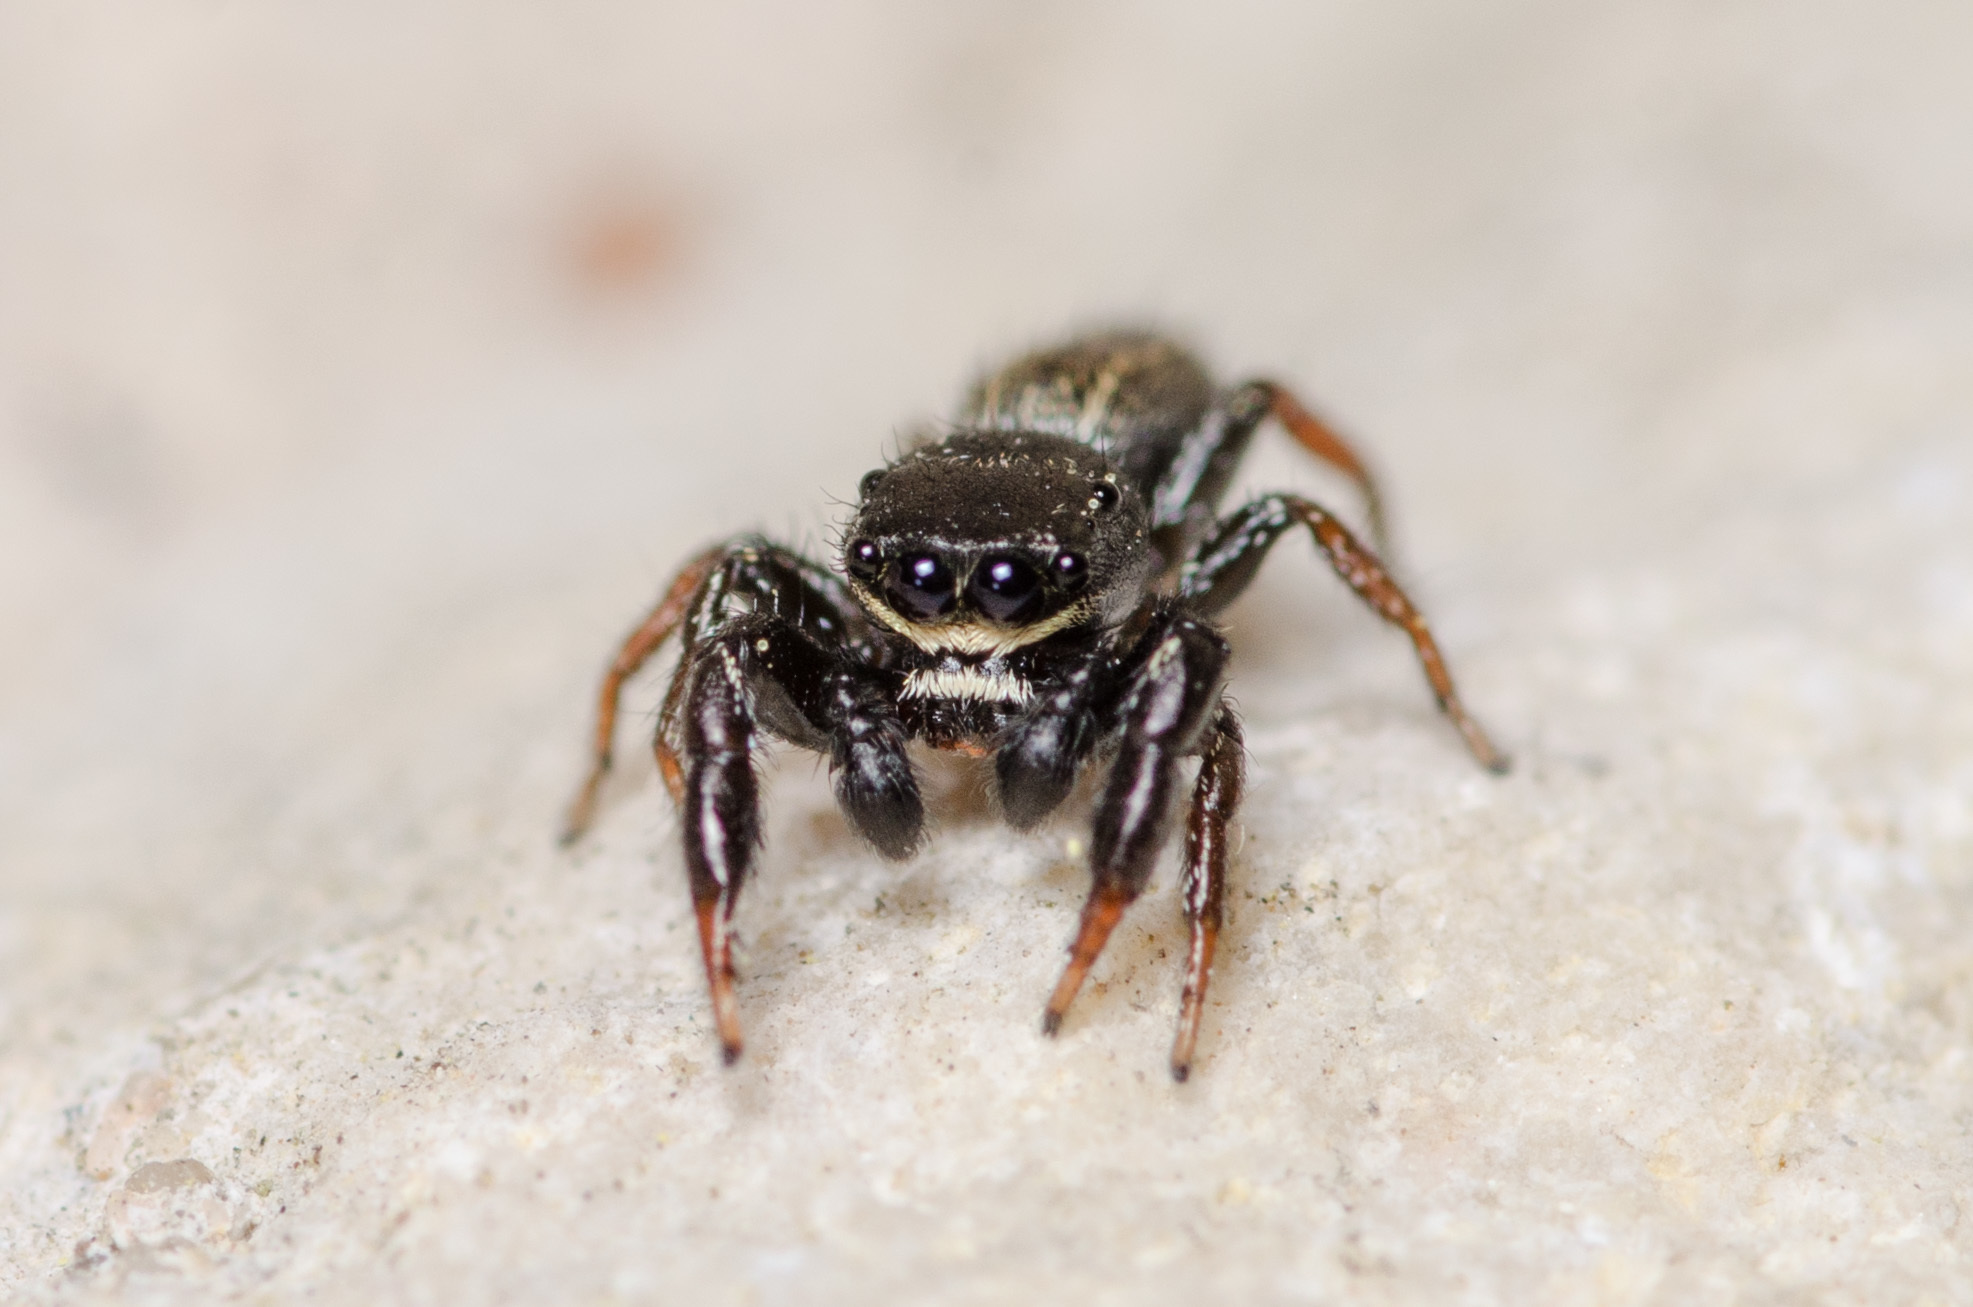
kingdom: Animalia
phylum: Arthropoda
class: Arachnida
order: Araneae
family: Salticidae
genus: Metacyrba
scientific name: Metacyrba taeniola
